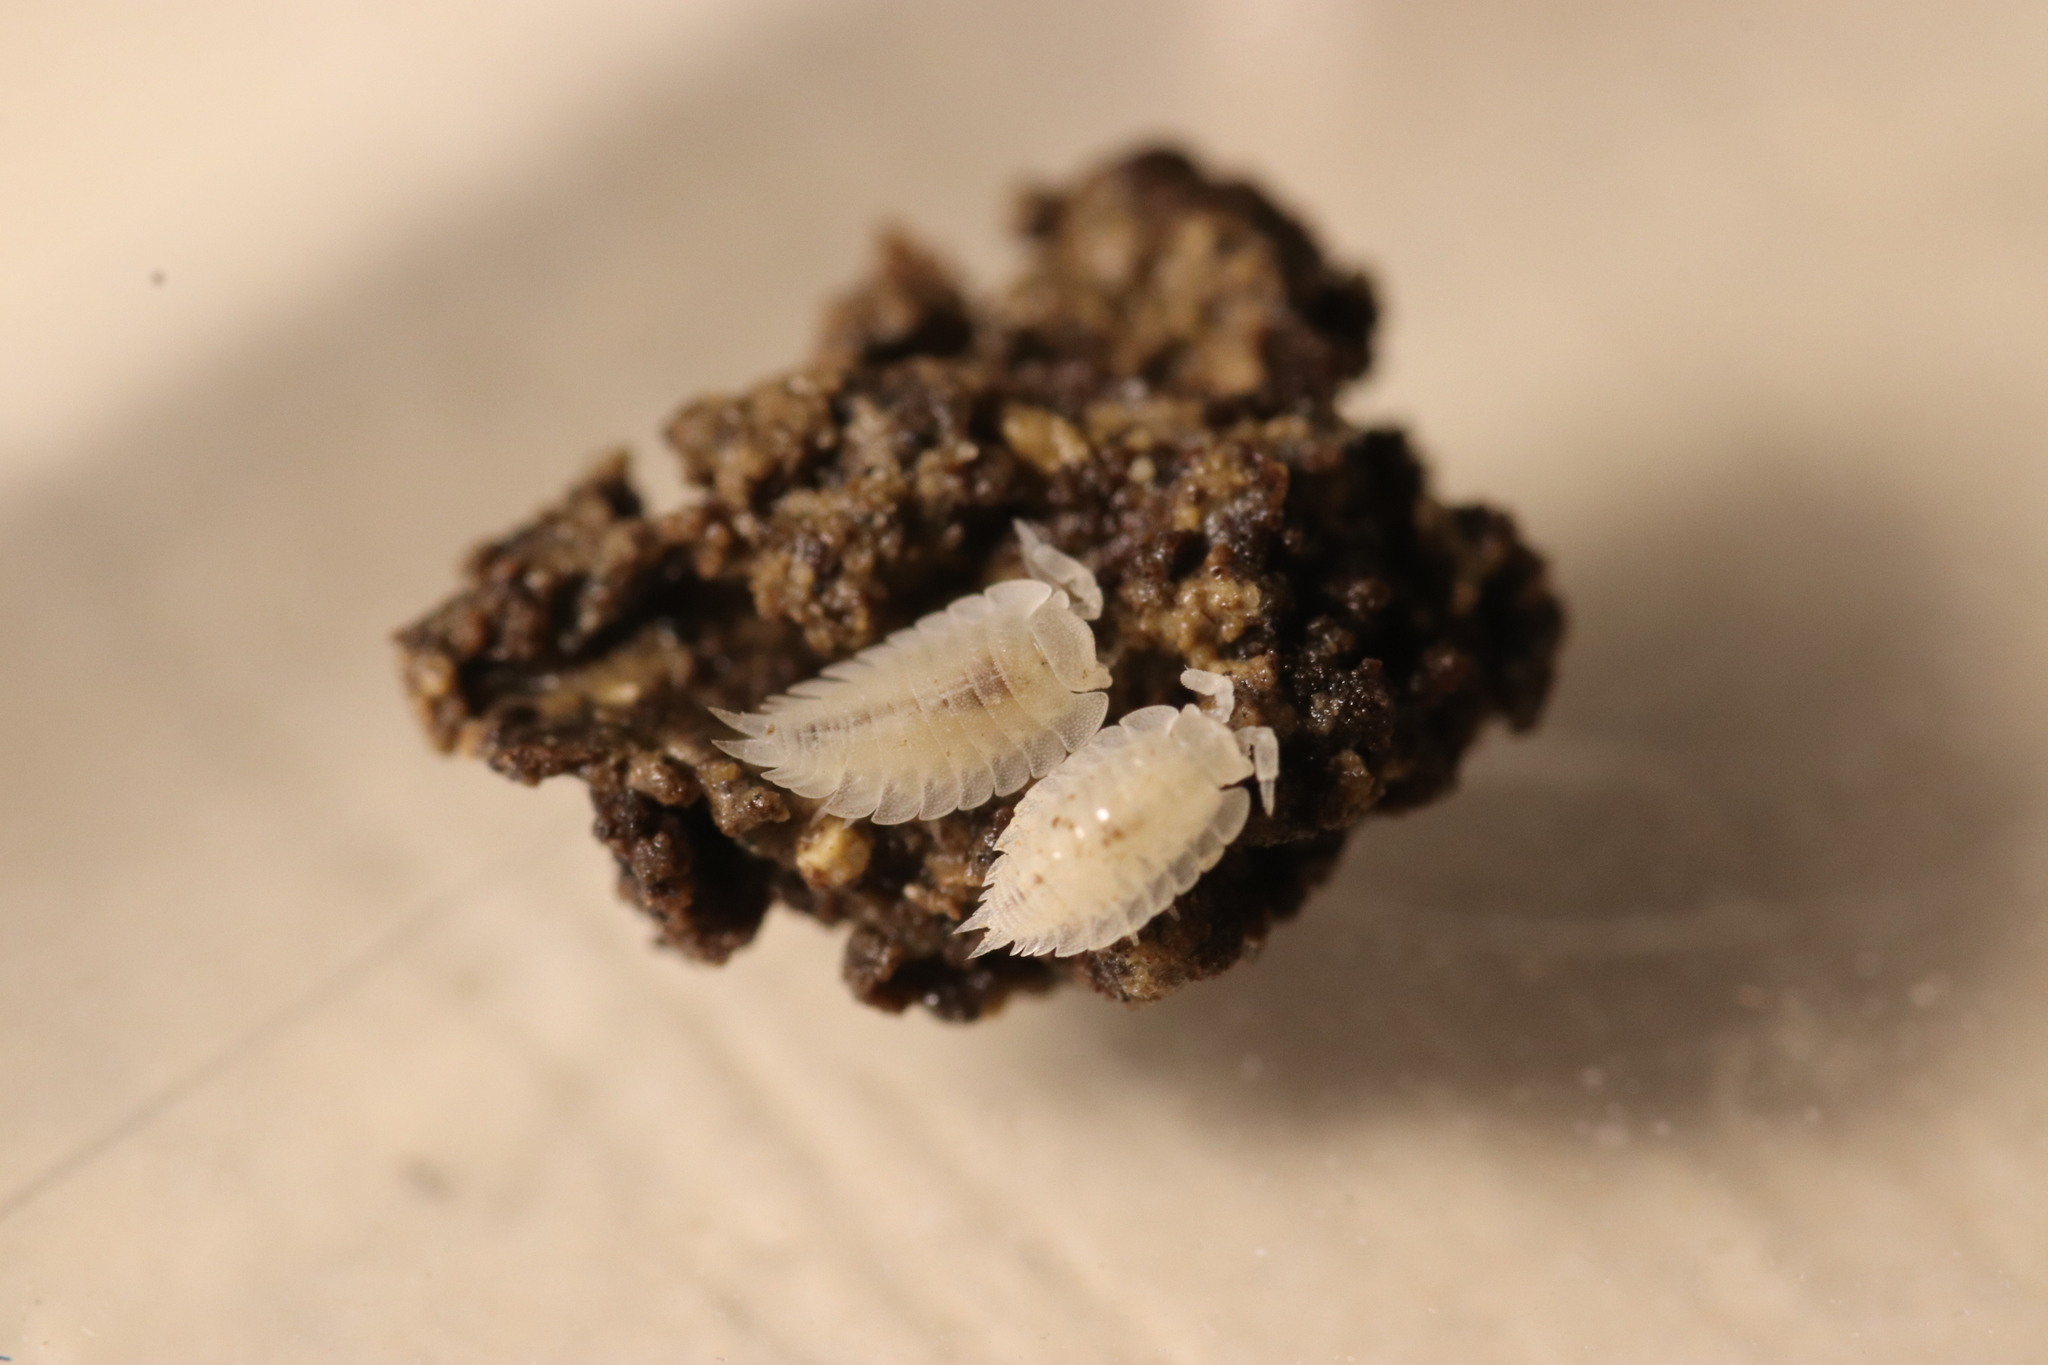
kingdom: Animalia
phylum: Arthropoda
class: Malacostraca
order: Isopoda
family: Platyarthridae
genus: Platyarthrus
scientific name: Platyarthrus hoffmannseggii
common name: Ant woodlouse
